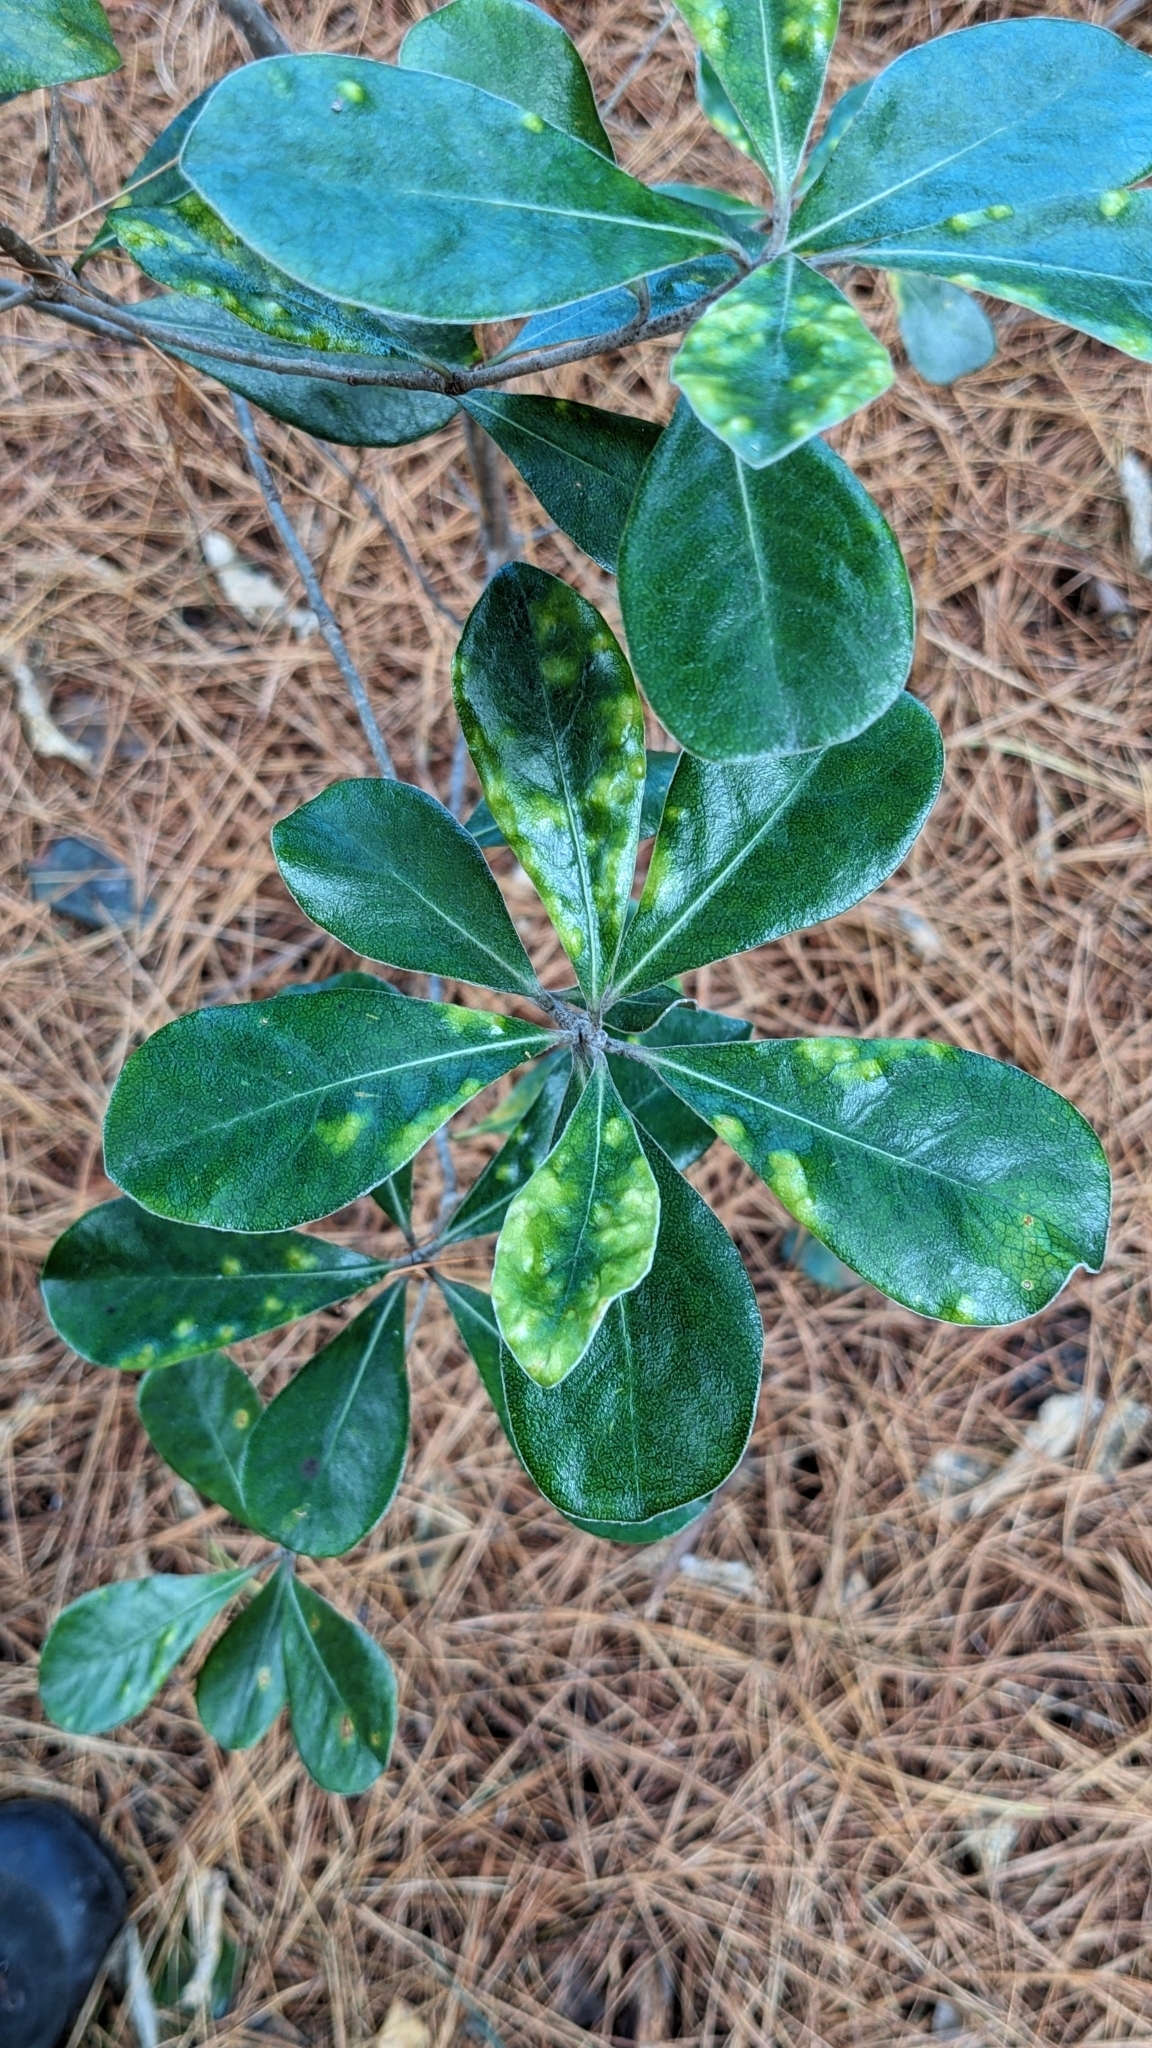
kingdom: Plantae
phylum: Tracheophyta
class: Magnoliopsida
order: Apiales
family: Pittosporaceae
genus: Pittosporum
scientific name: Pittosporum crassifolium
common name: Karo
